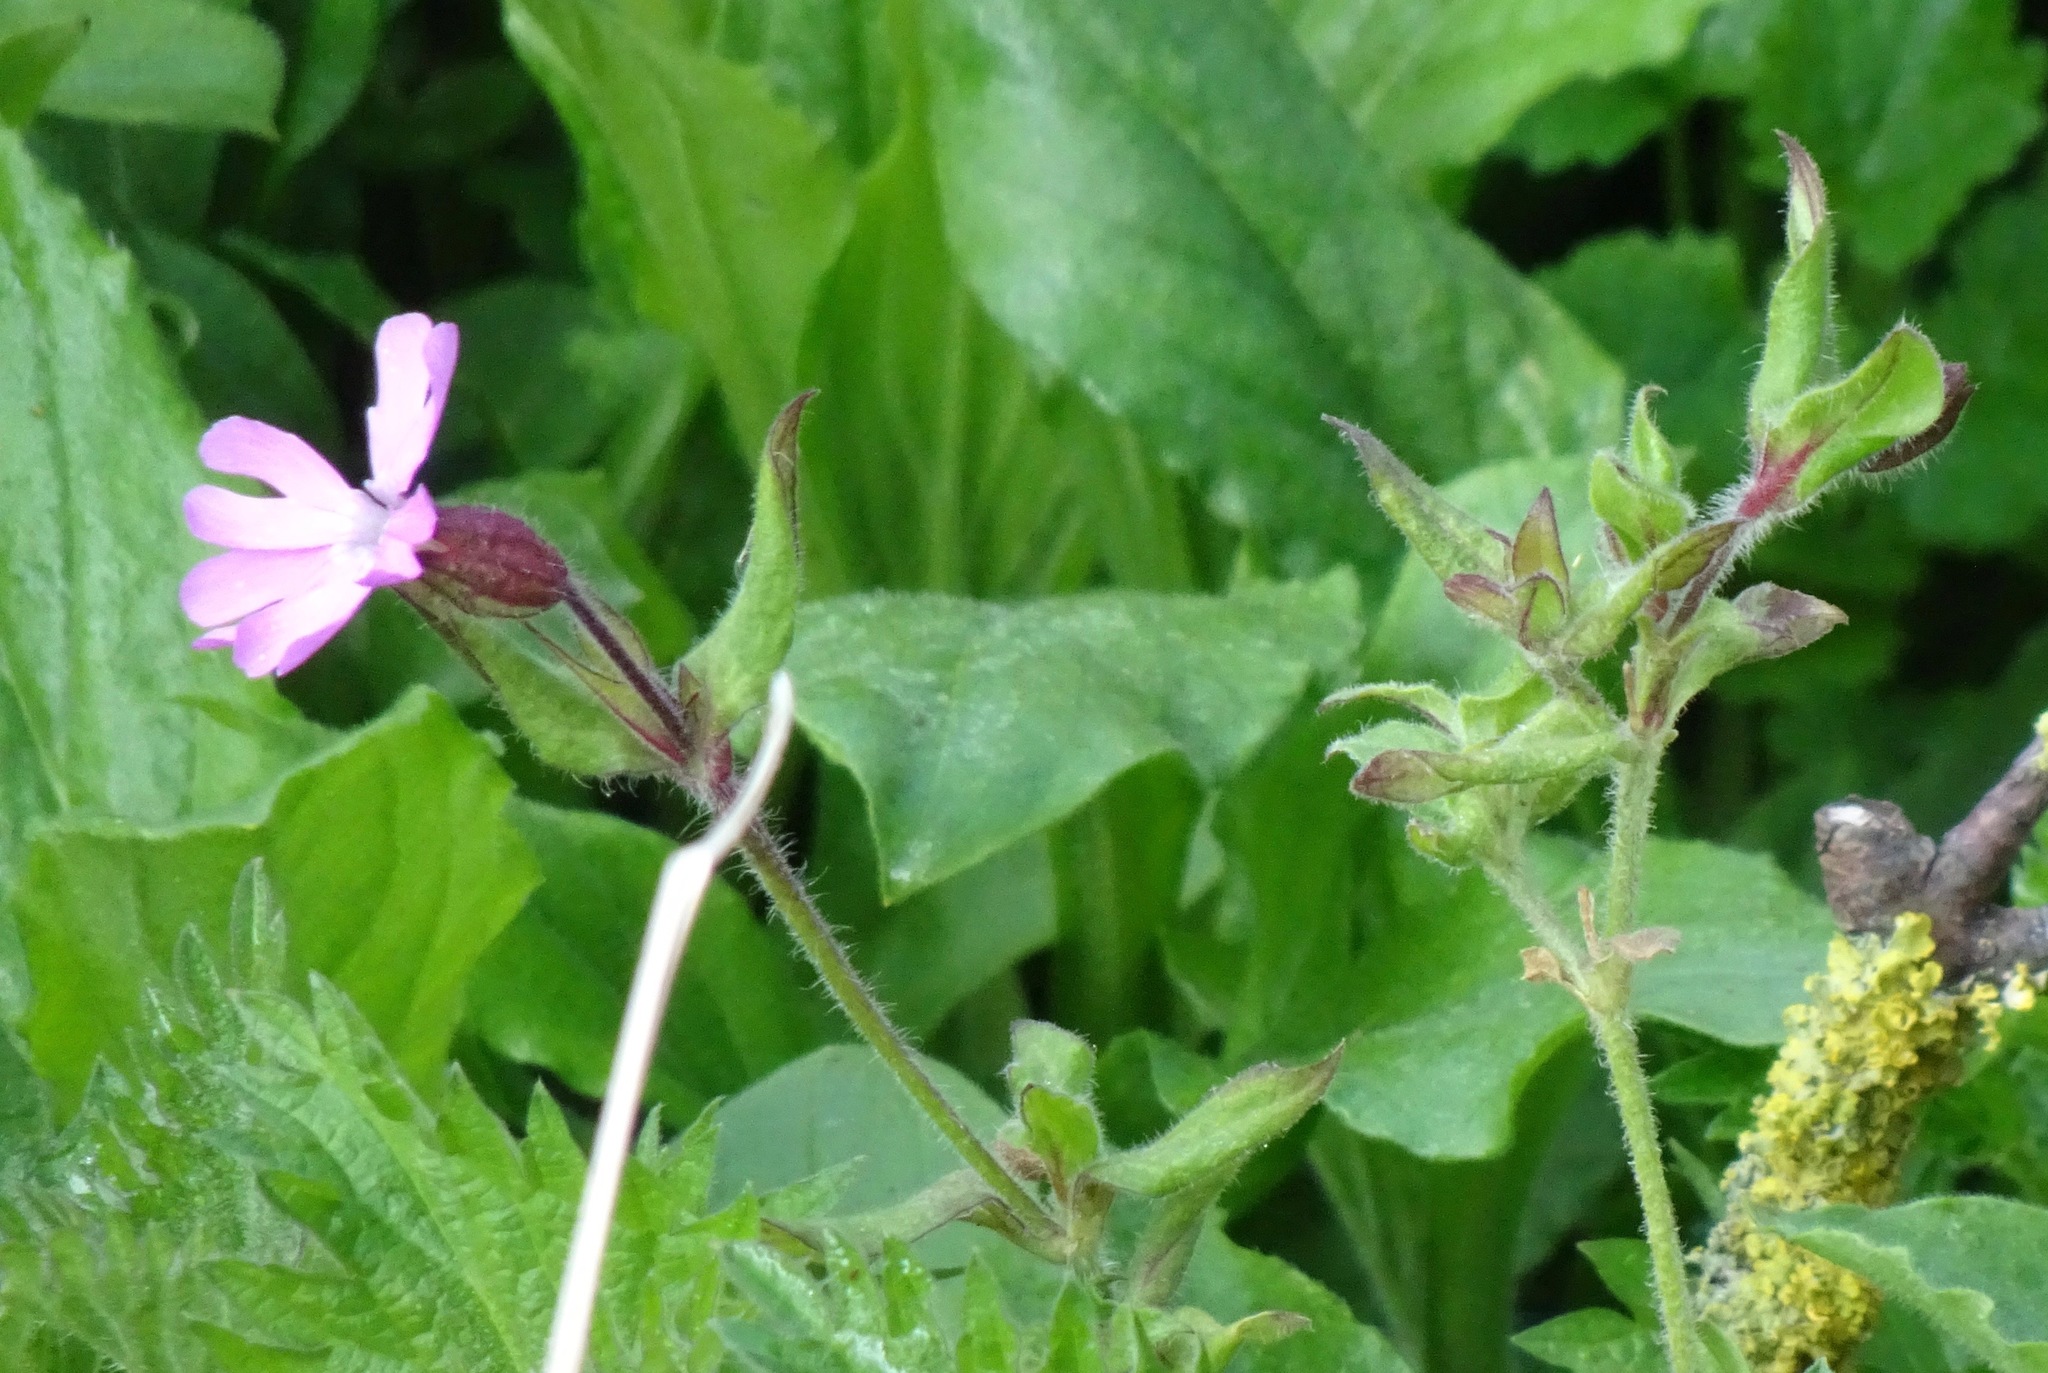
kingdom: Plantae
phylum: Tracheophyta
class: Magnoliopsida
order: Caryophyllales
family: Caryophyllaceae
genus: Silene
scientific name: Silene dioica
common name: Red campion
